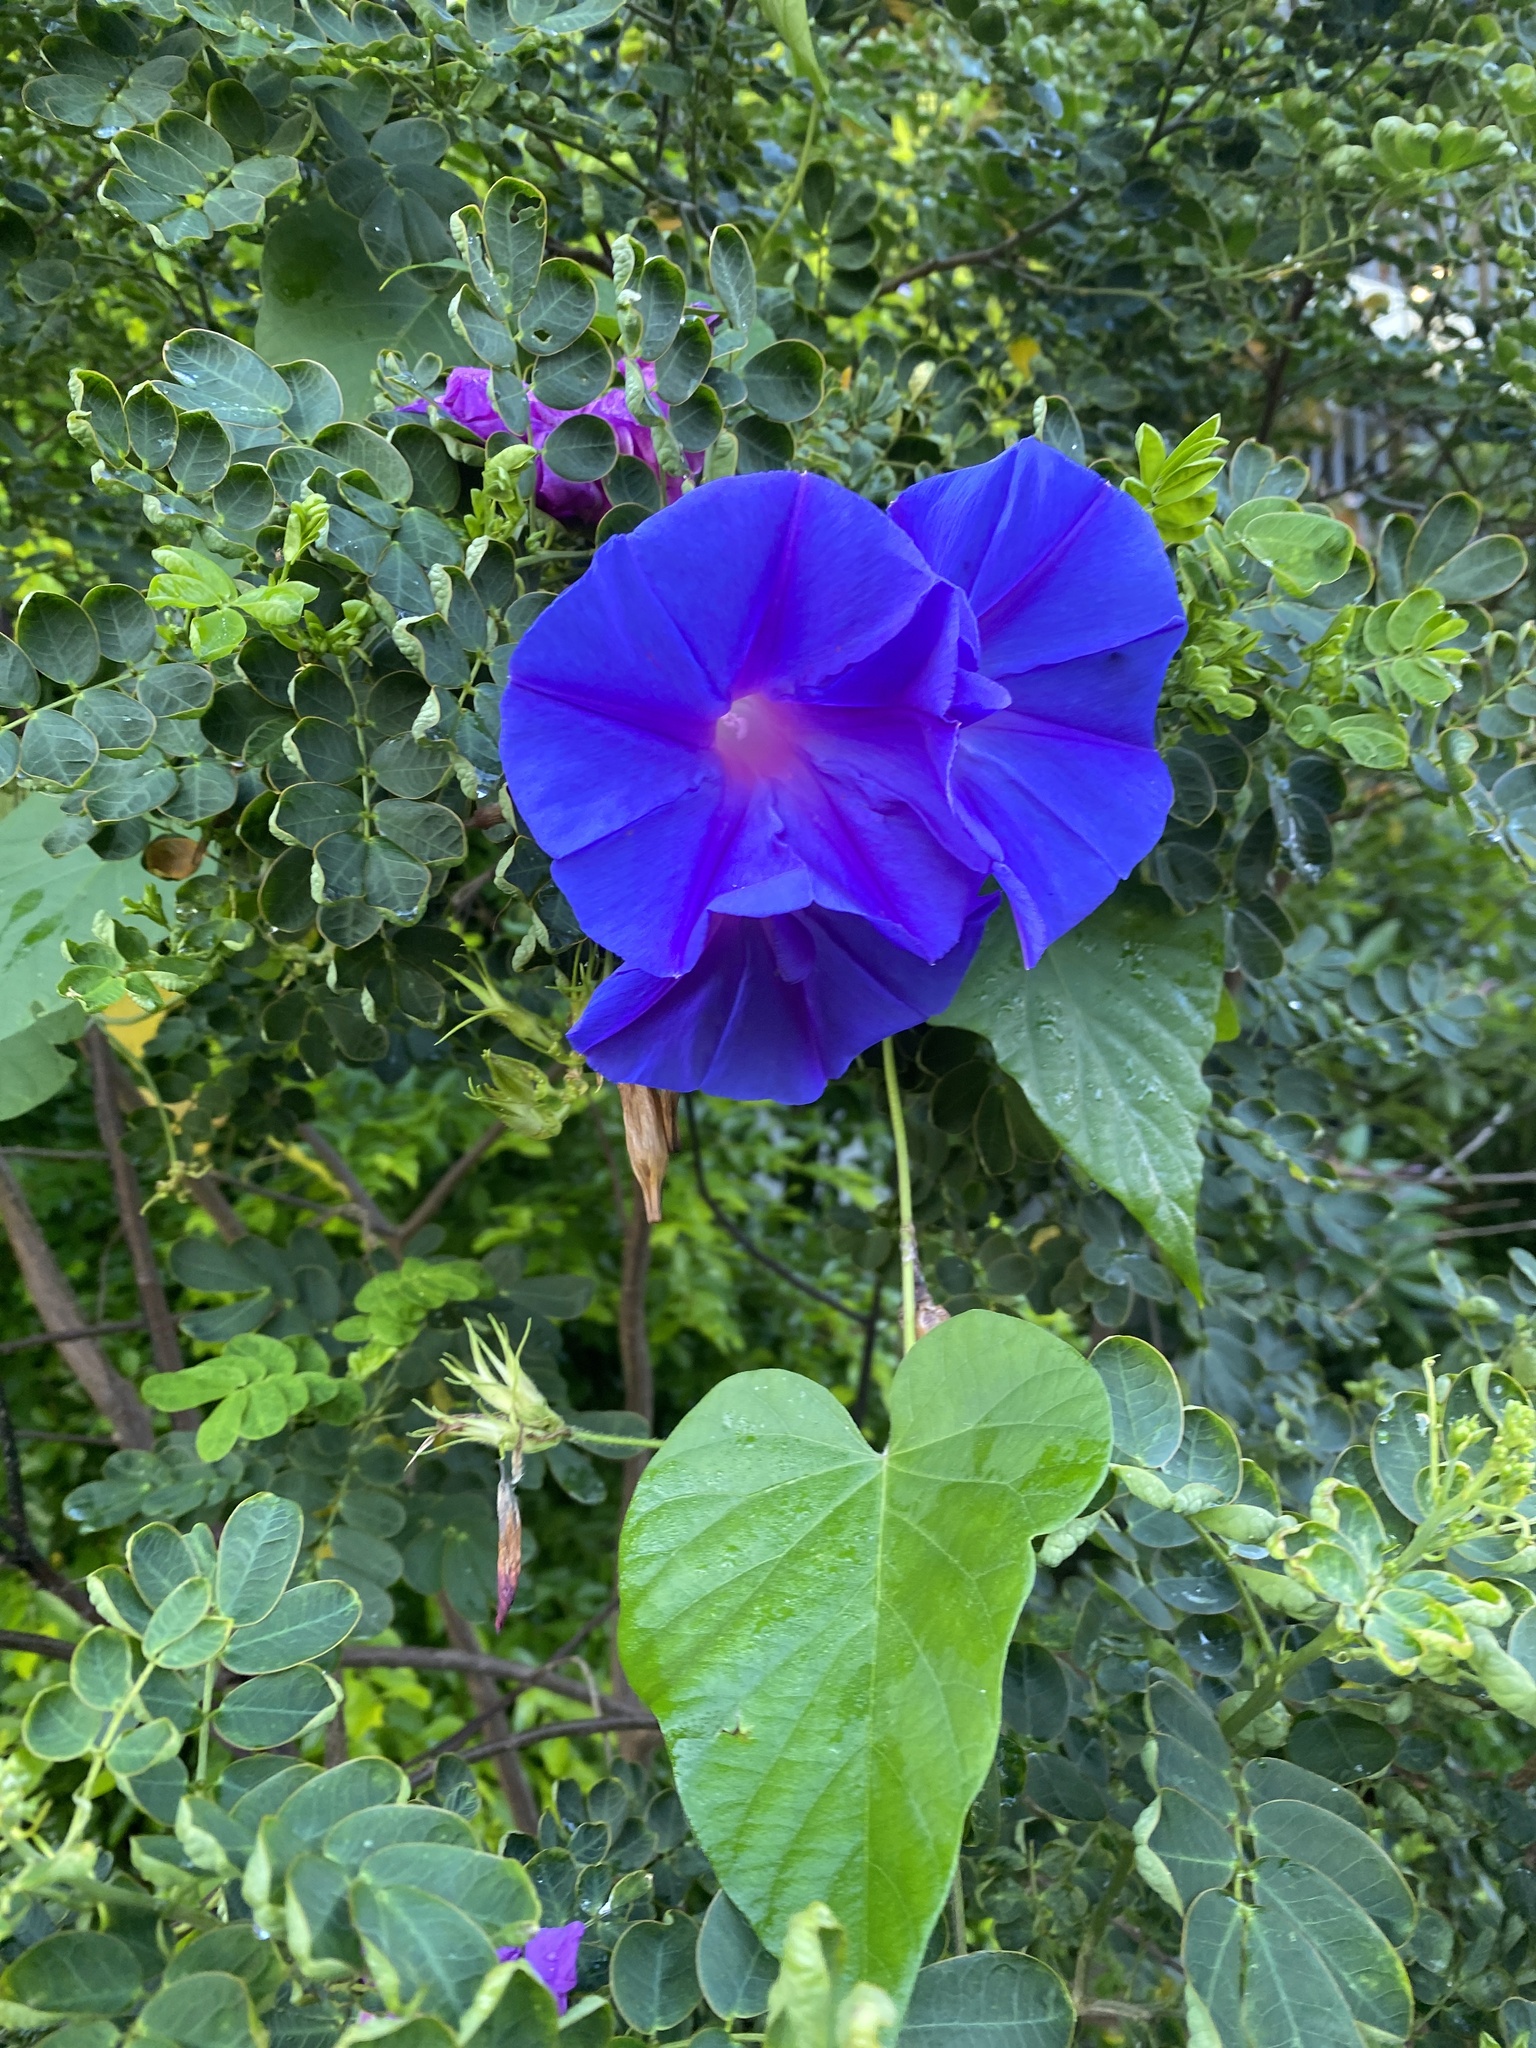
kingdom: Plantae
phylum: Tracheophyta
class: Magnoliopsida
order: Solanales
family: Convolvulaceae
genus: Ipomoea
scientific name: Ipomoea indica
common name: Blue dawnflower
